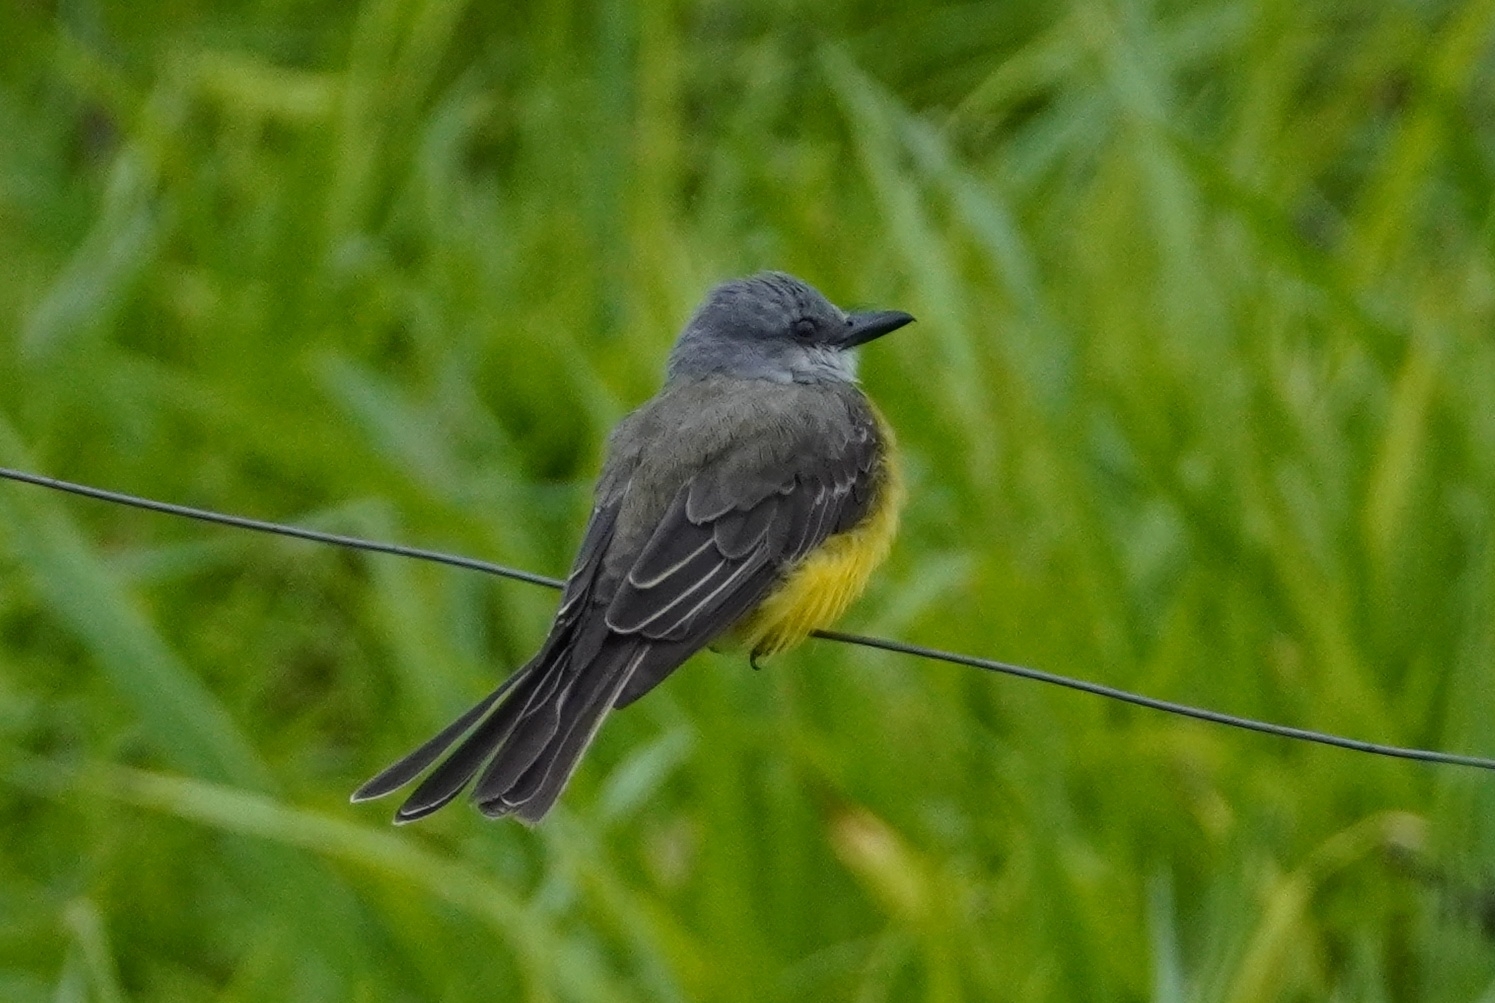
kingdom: Animalia
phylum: Chordata
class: Aves
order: Passeriformes
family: Tyrannidae
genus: Tyrannus
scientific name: Tyrannus melancholicus
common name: Tropical kingbird
